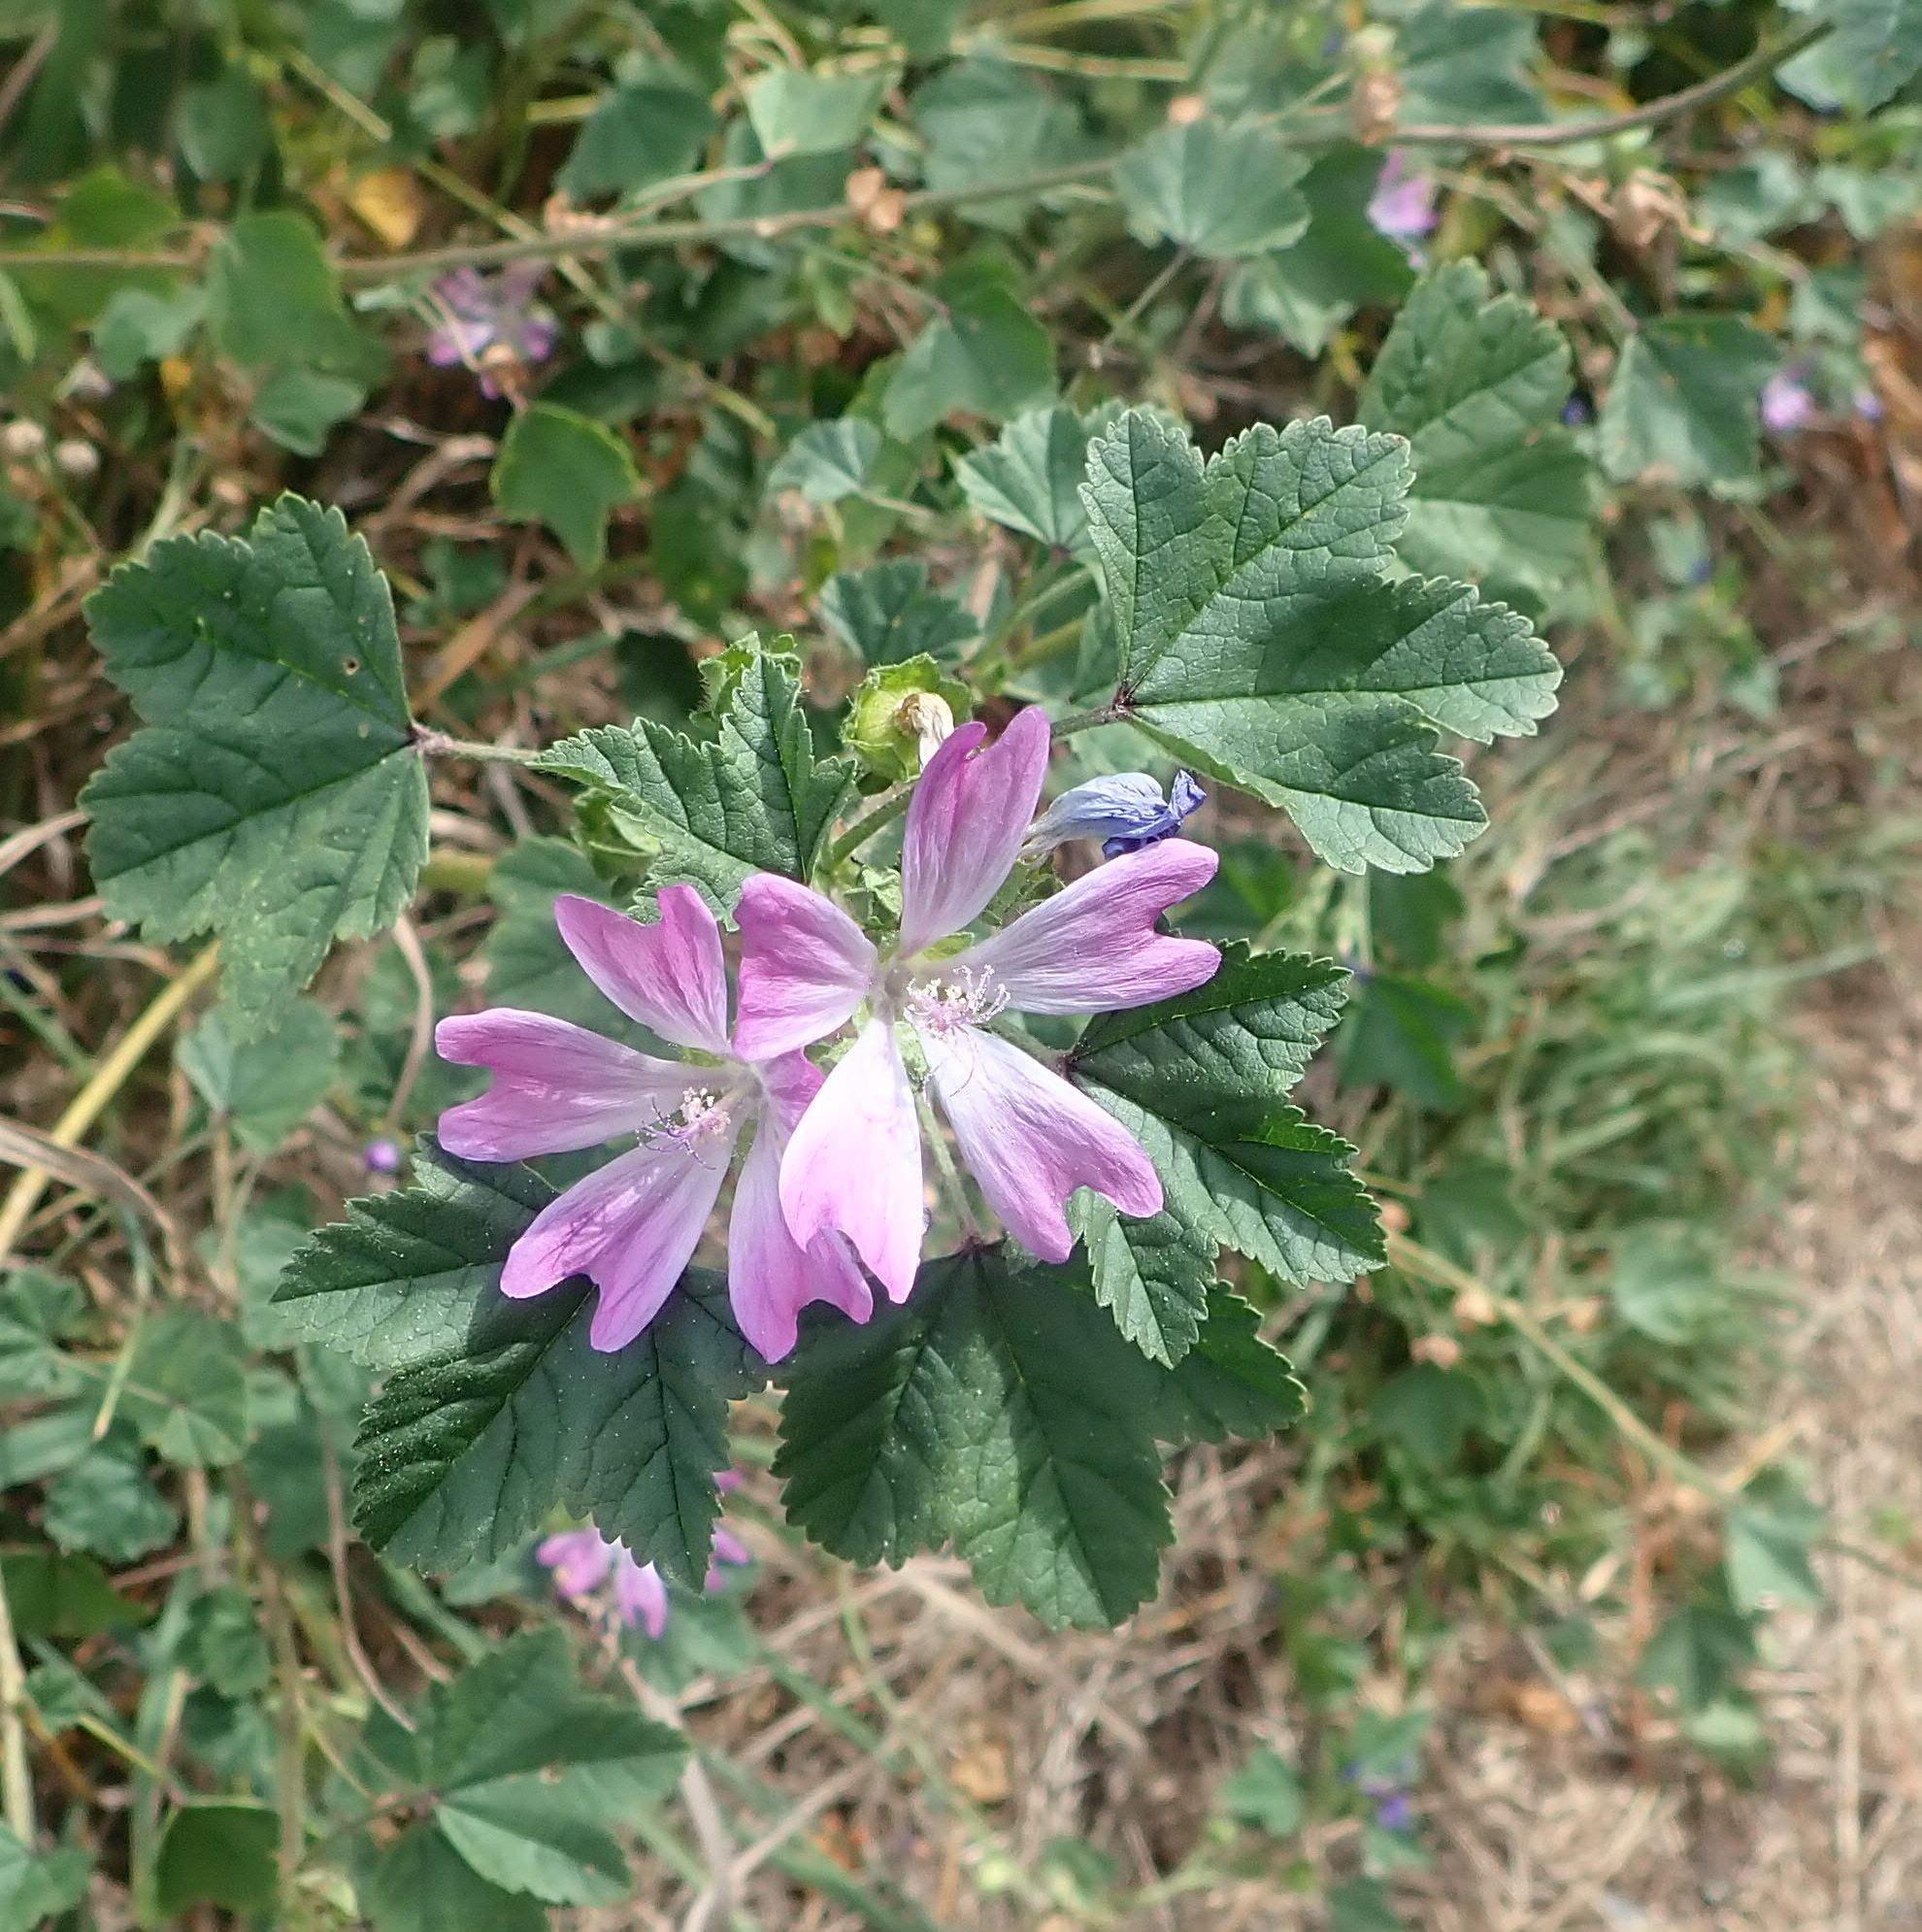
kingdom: Plantae
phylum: Tracheophyta
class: Magnoliopsida
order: Malvales
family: Malvaceae
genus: Malva
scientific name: Malva sylvestris
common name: Common mallow
